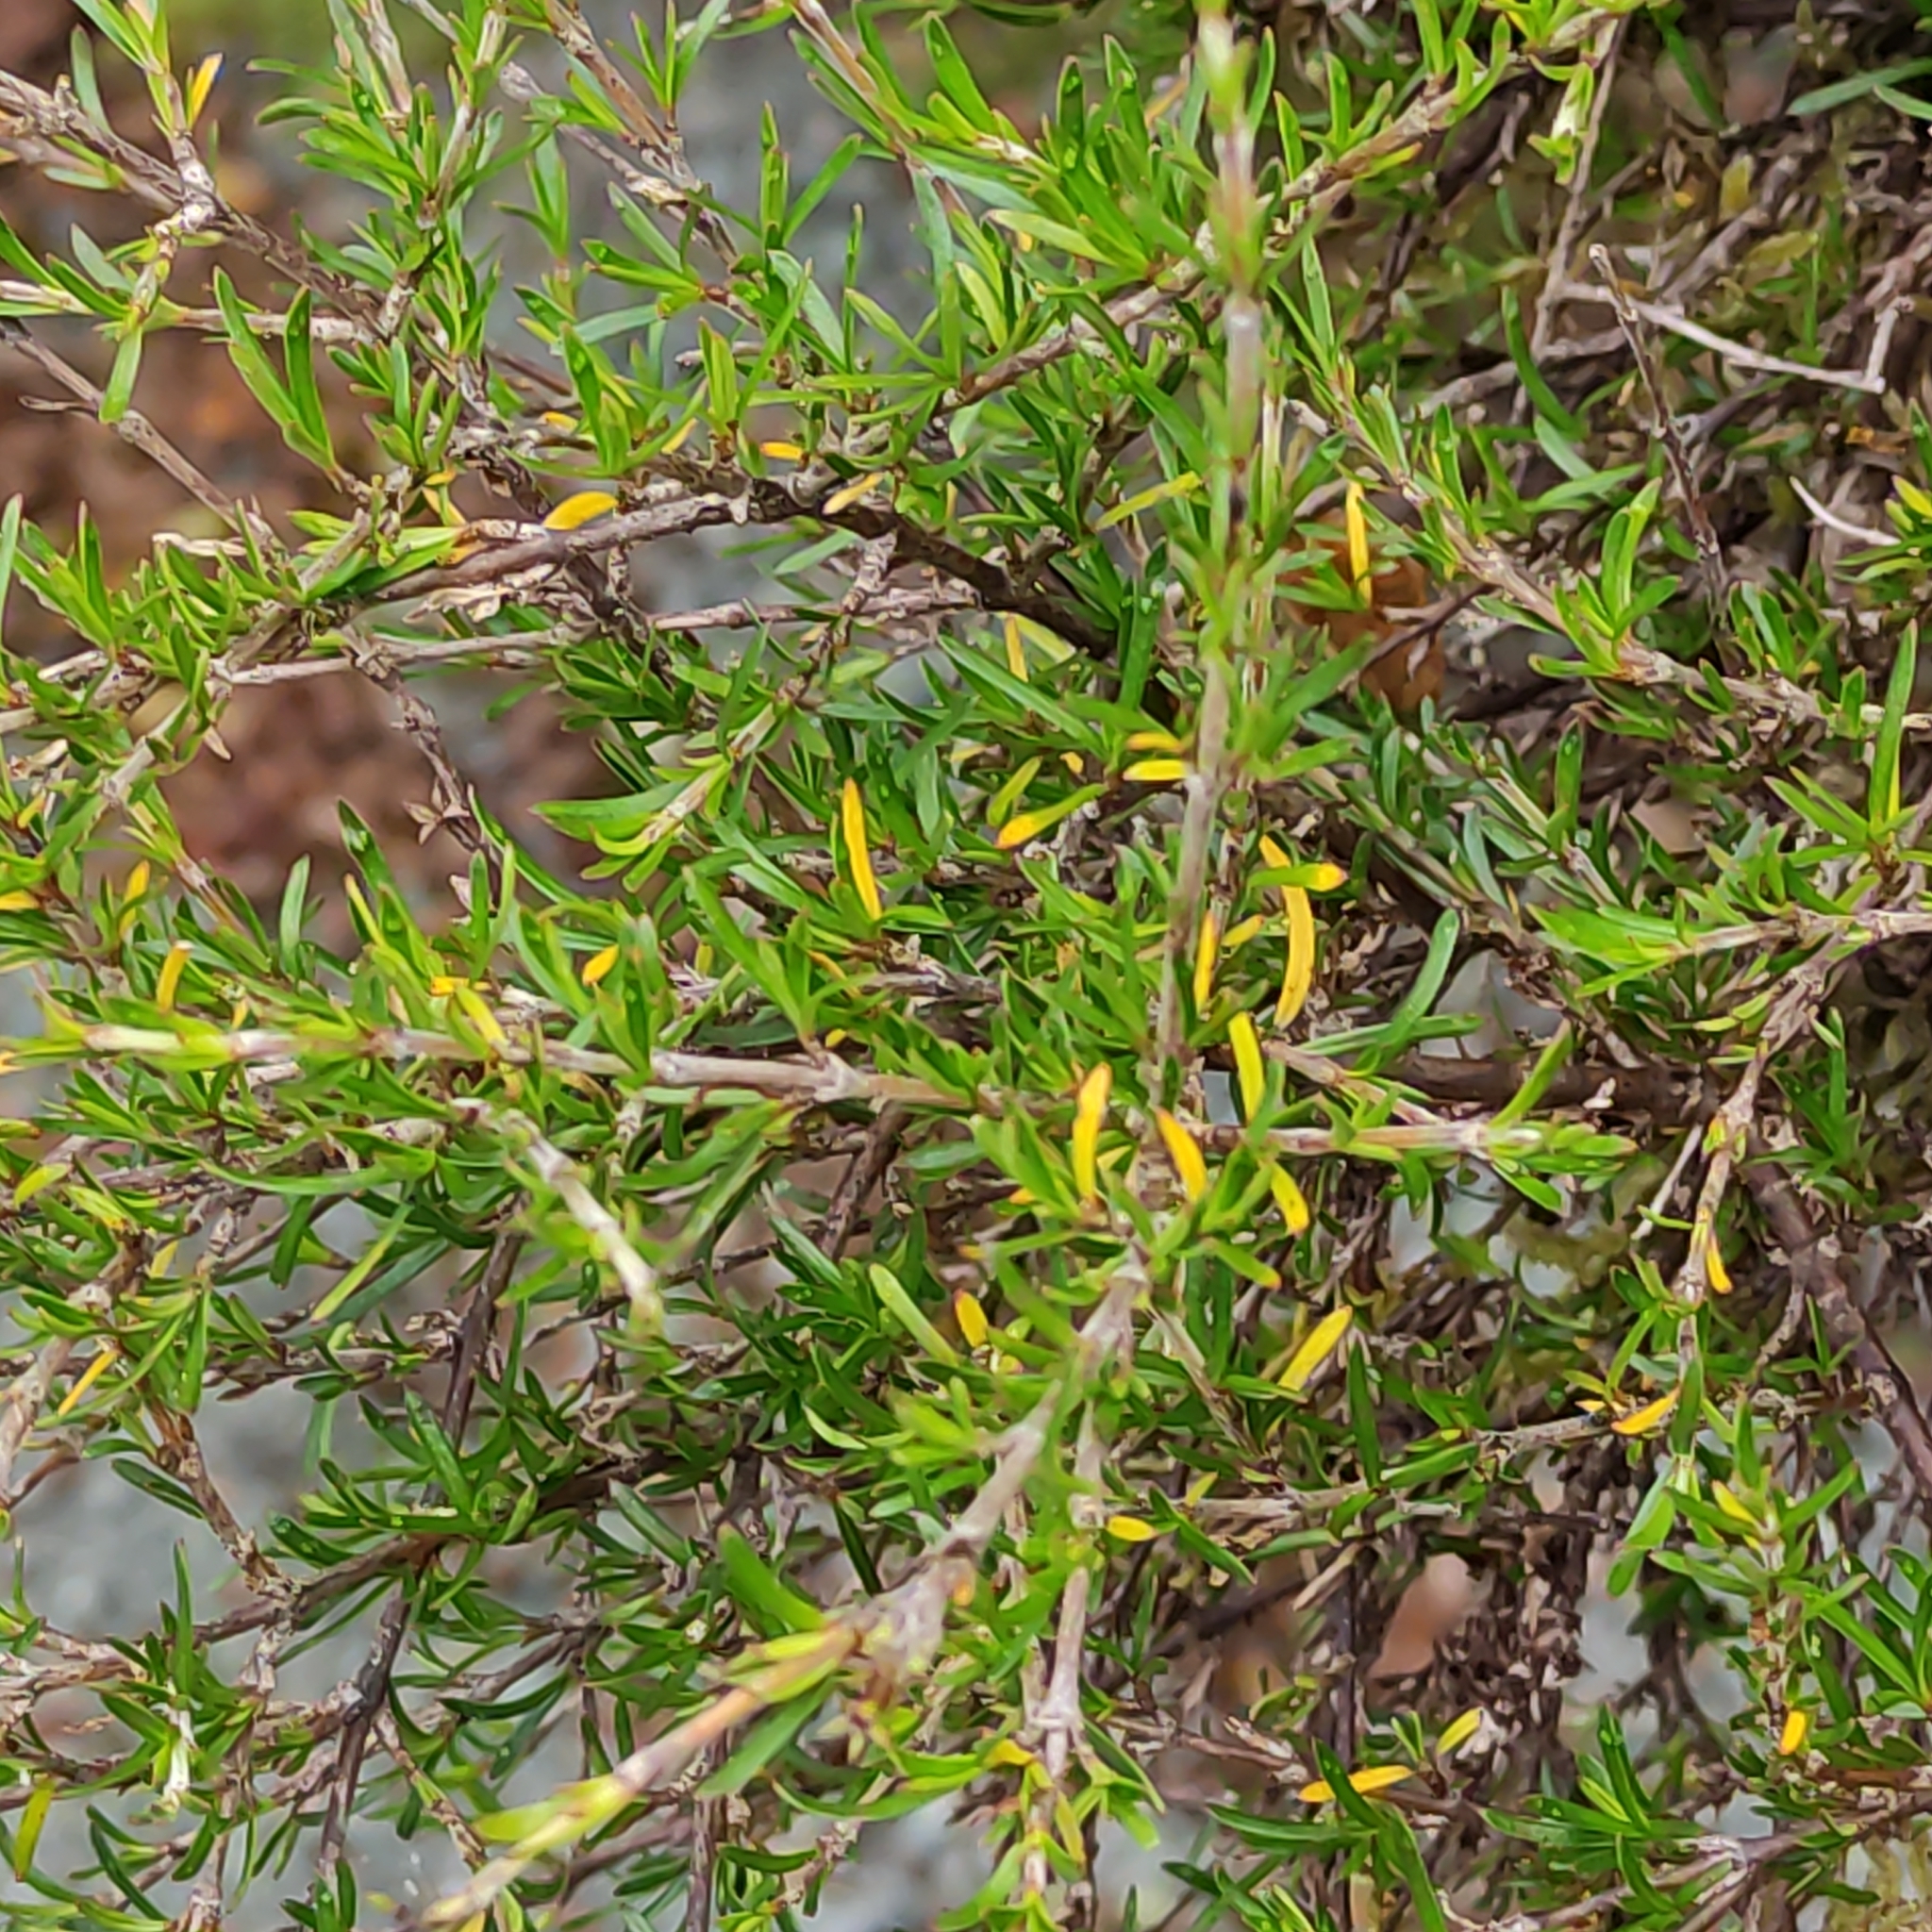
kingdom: Plantae
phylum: Tracheophyta
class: Magnoliopsida
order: Gentianales
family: Rubiaceae
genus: Coprosma
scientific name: Coprosma rugosa
